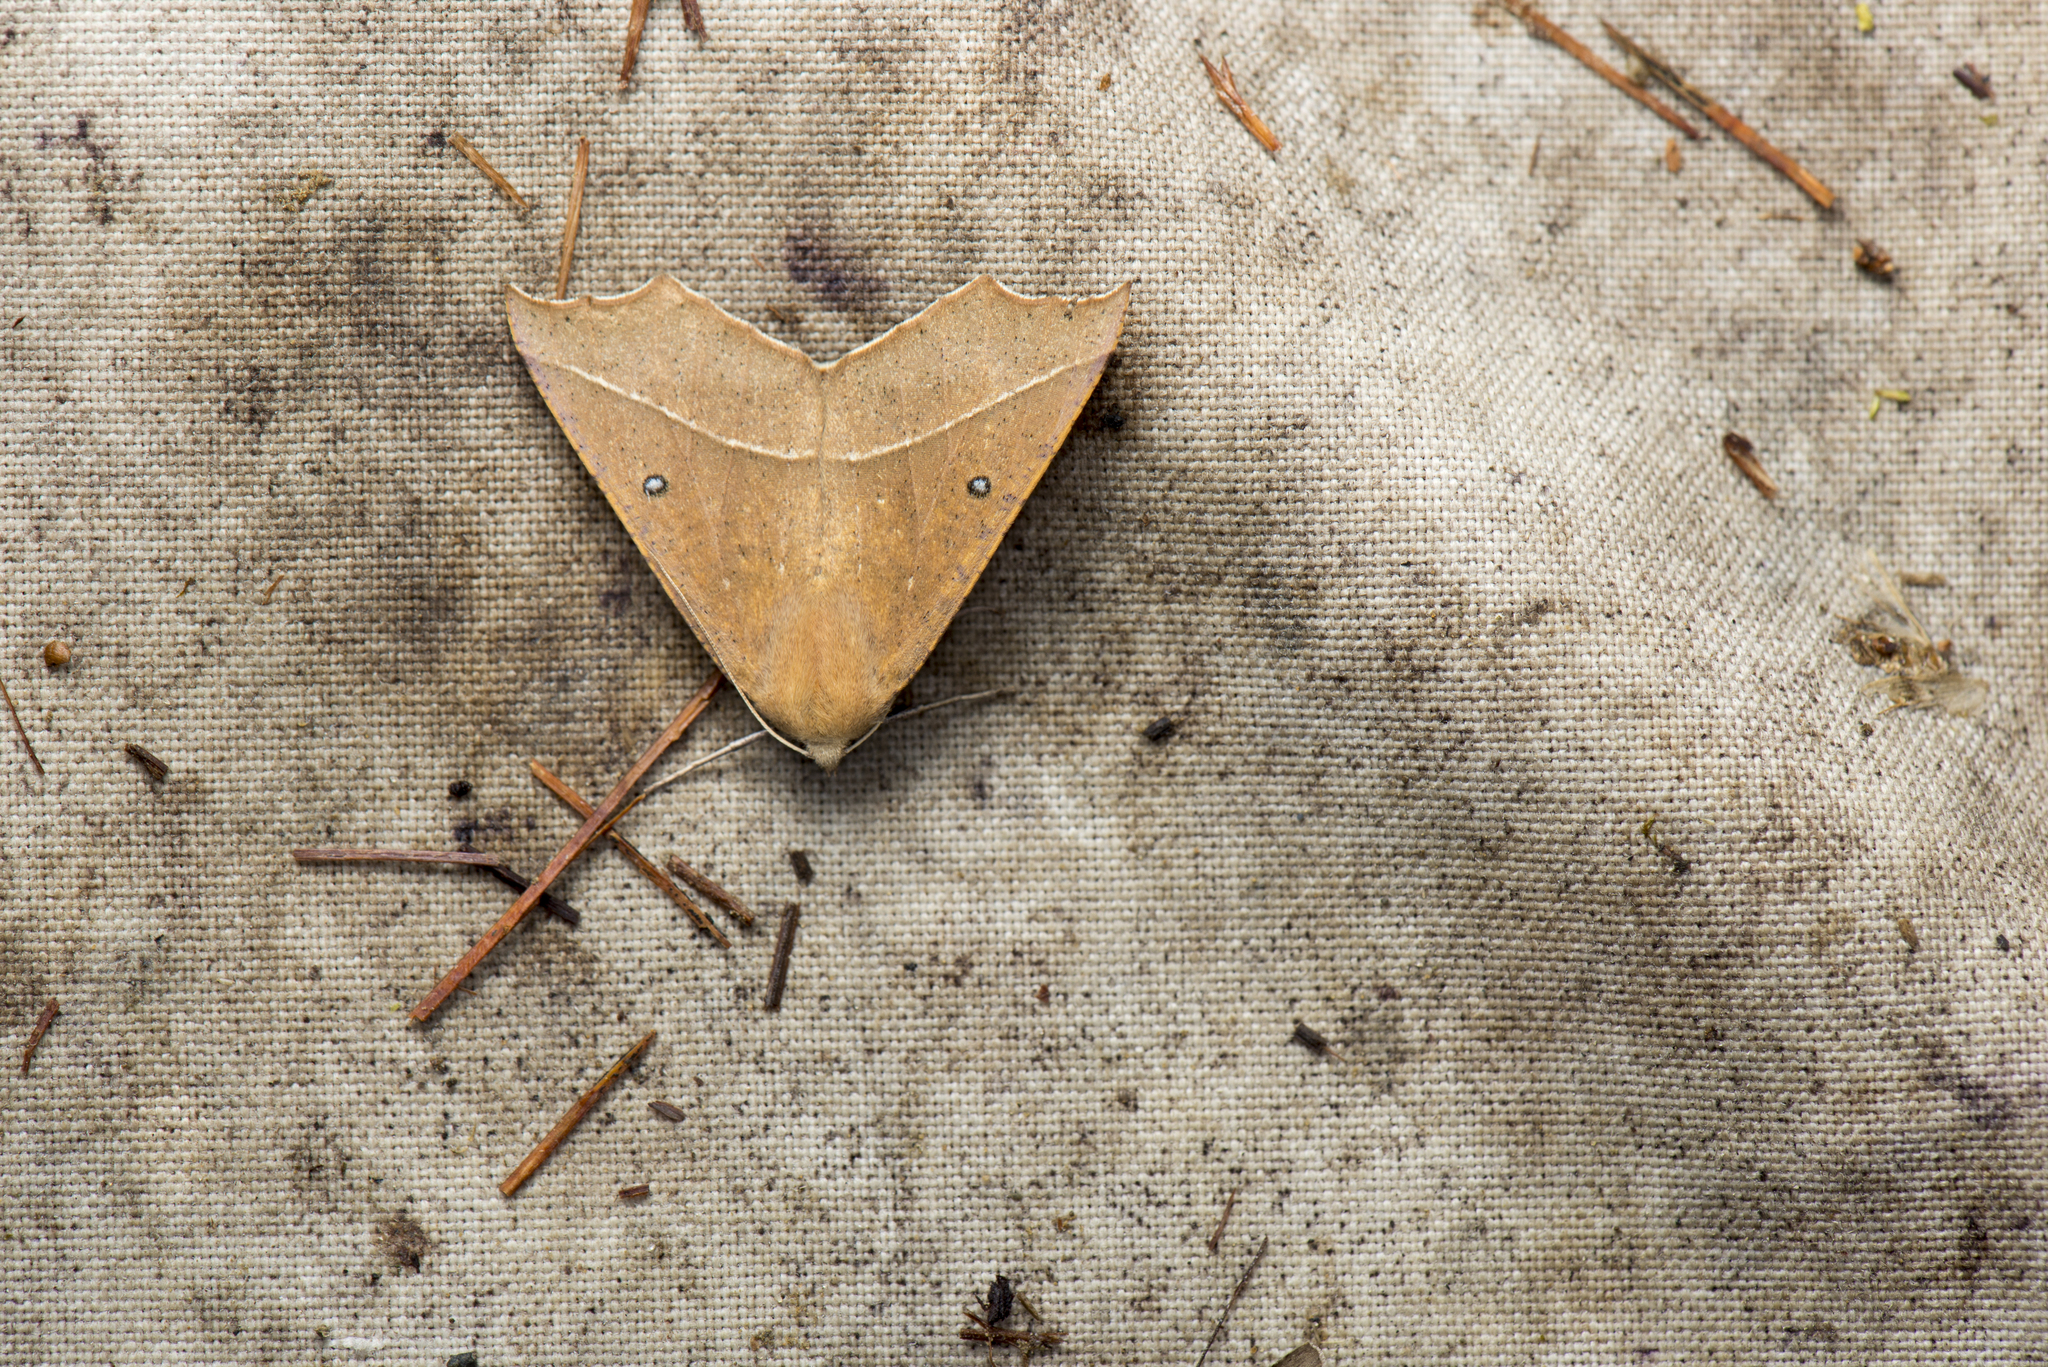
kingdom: Animalia
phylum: Arthropoda
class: Insecta
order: Lepidoptera
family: Geometridae
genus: Odontopera
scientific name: Odontopera albiguttulata
